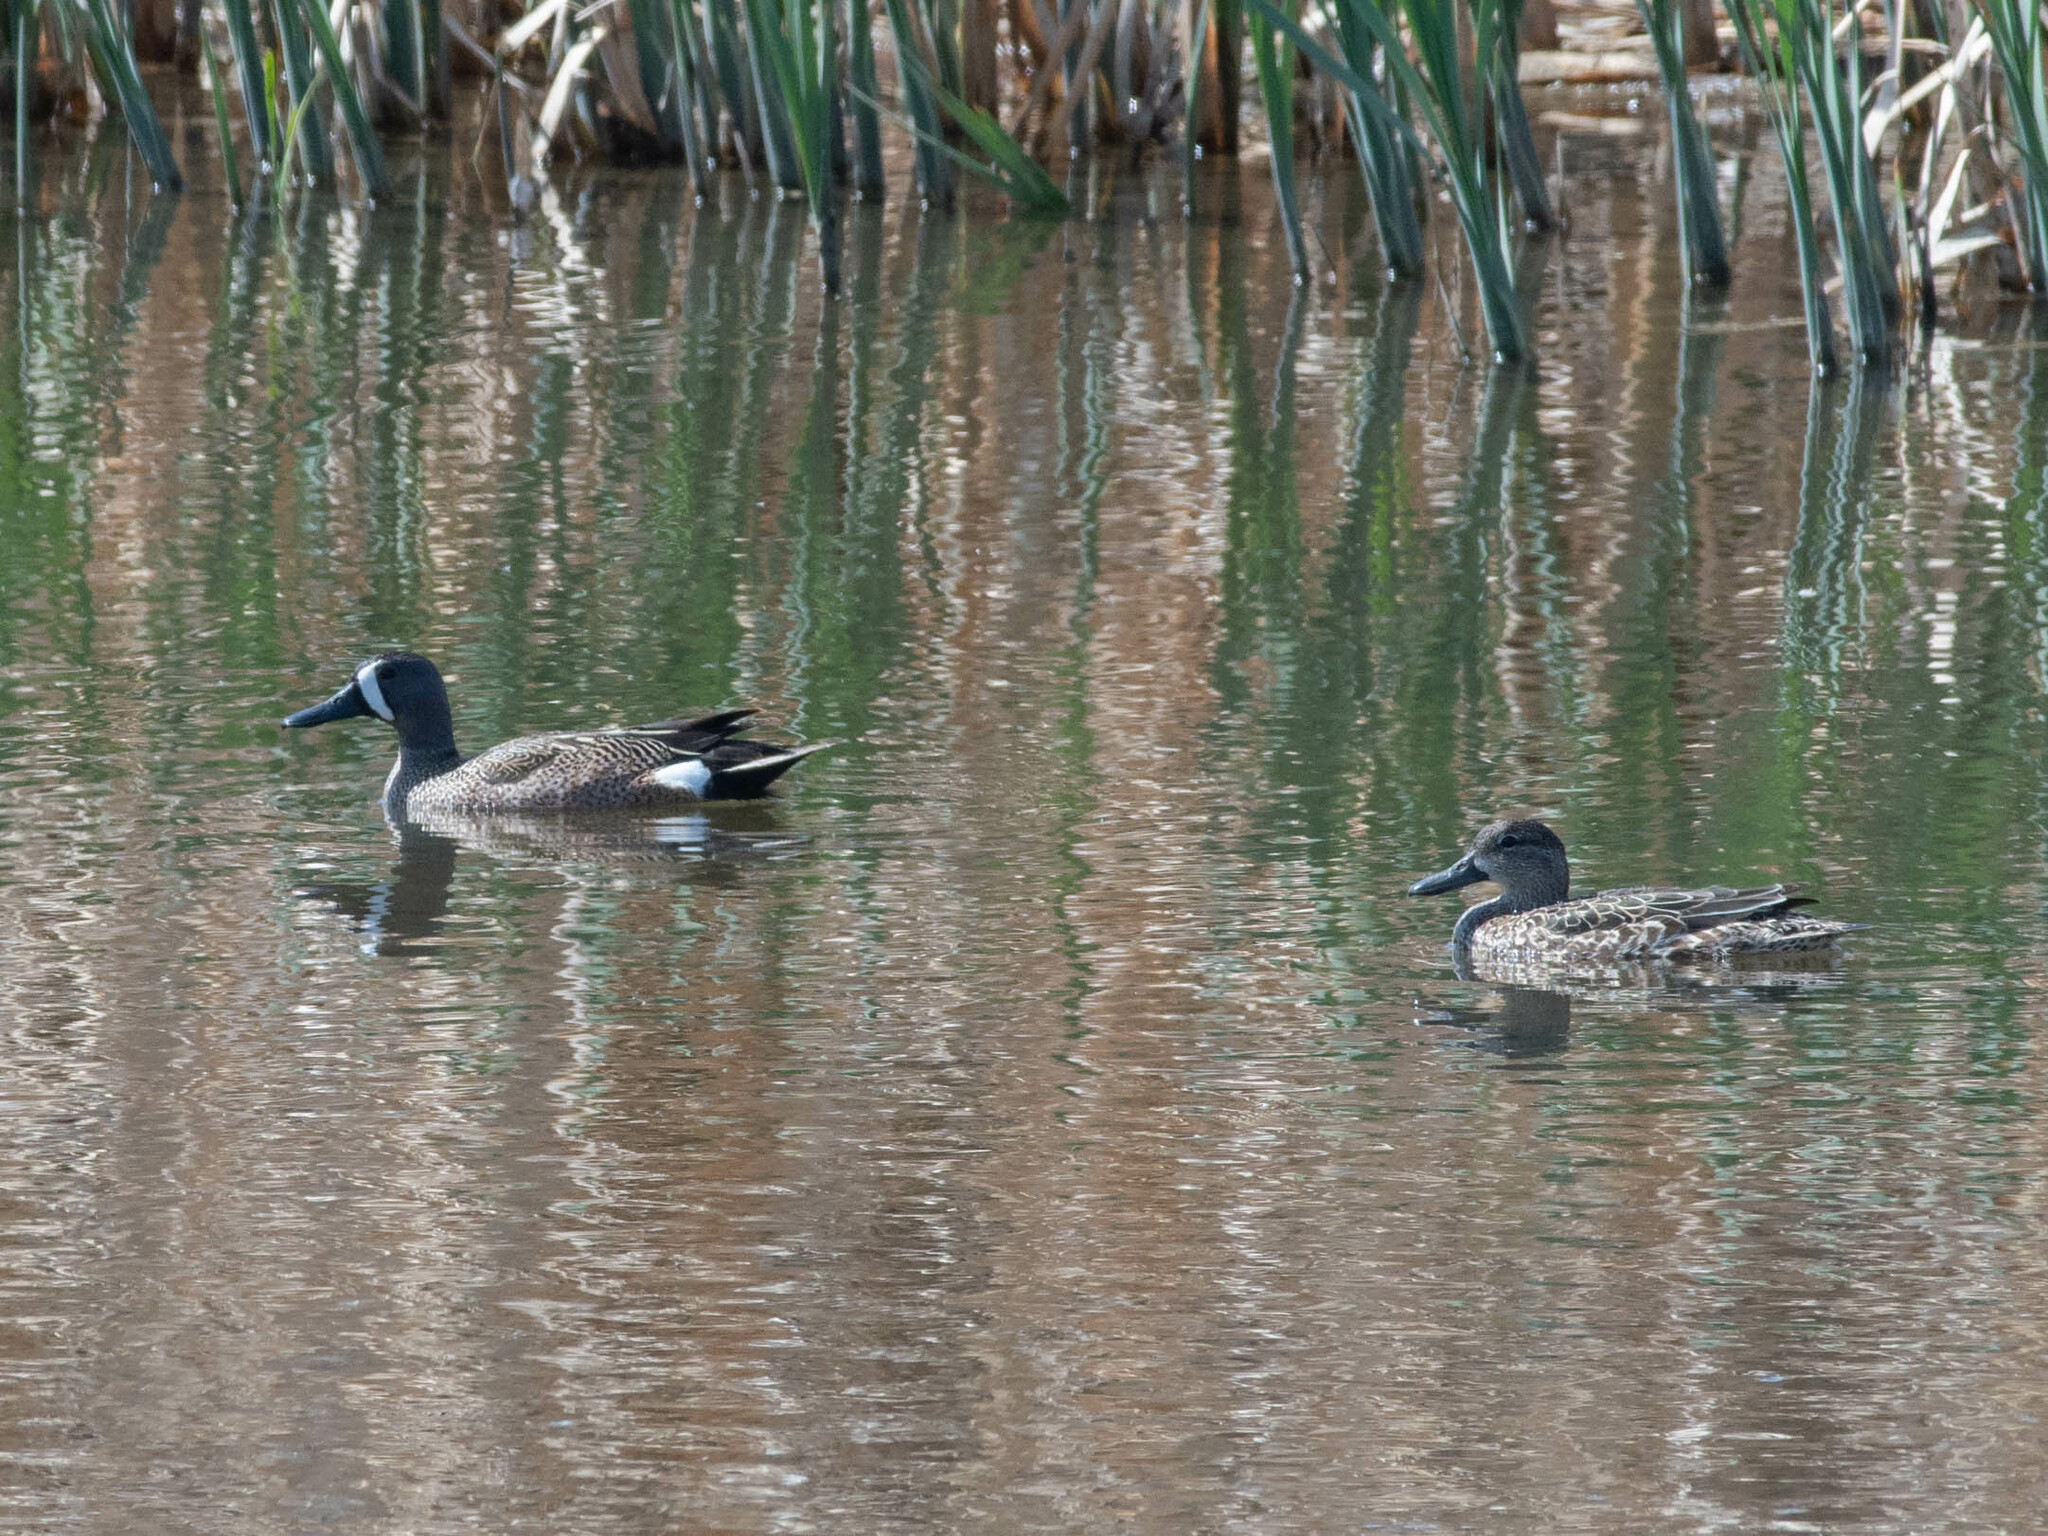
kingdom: Animalia
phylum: Chordata
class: Aves
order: Anseriformes
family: Anatidae
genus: Spatula
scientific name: Spatula discors
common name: Blue-winged teal
